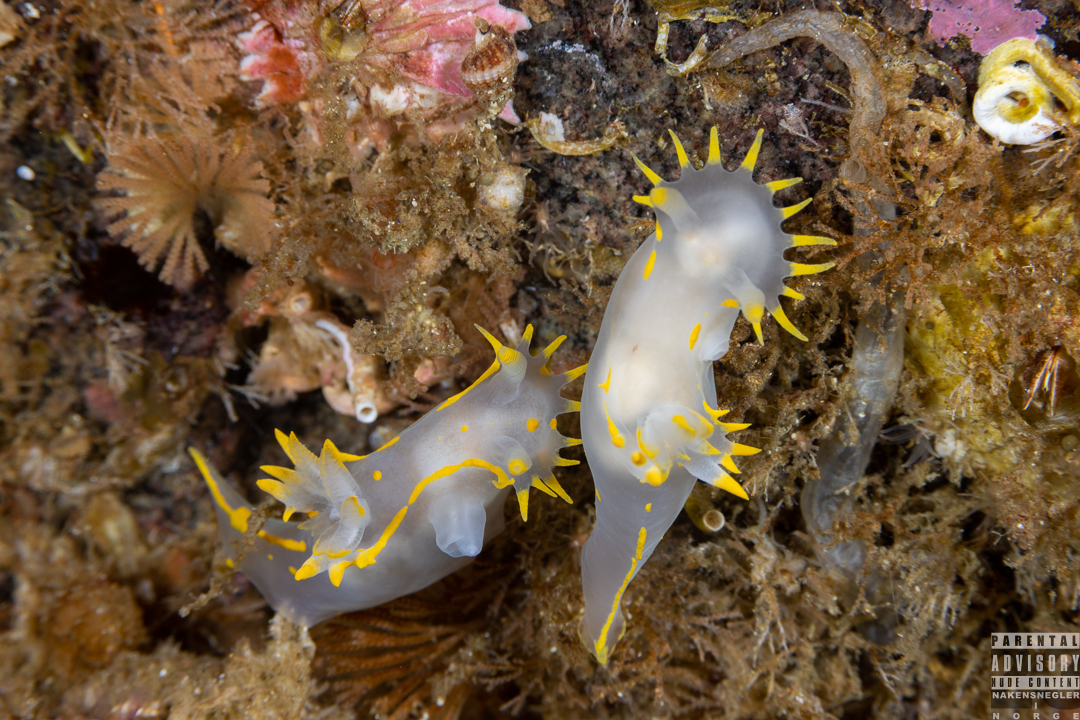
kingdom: Animalia
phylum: Mollusca
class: Gastropoda
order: Nudibranchia
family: Polyceridae
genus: Polycera
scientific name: Polycera faeroensis
